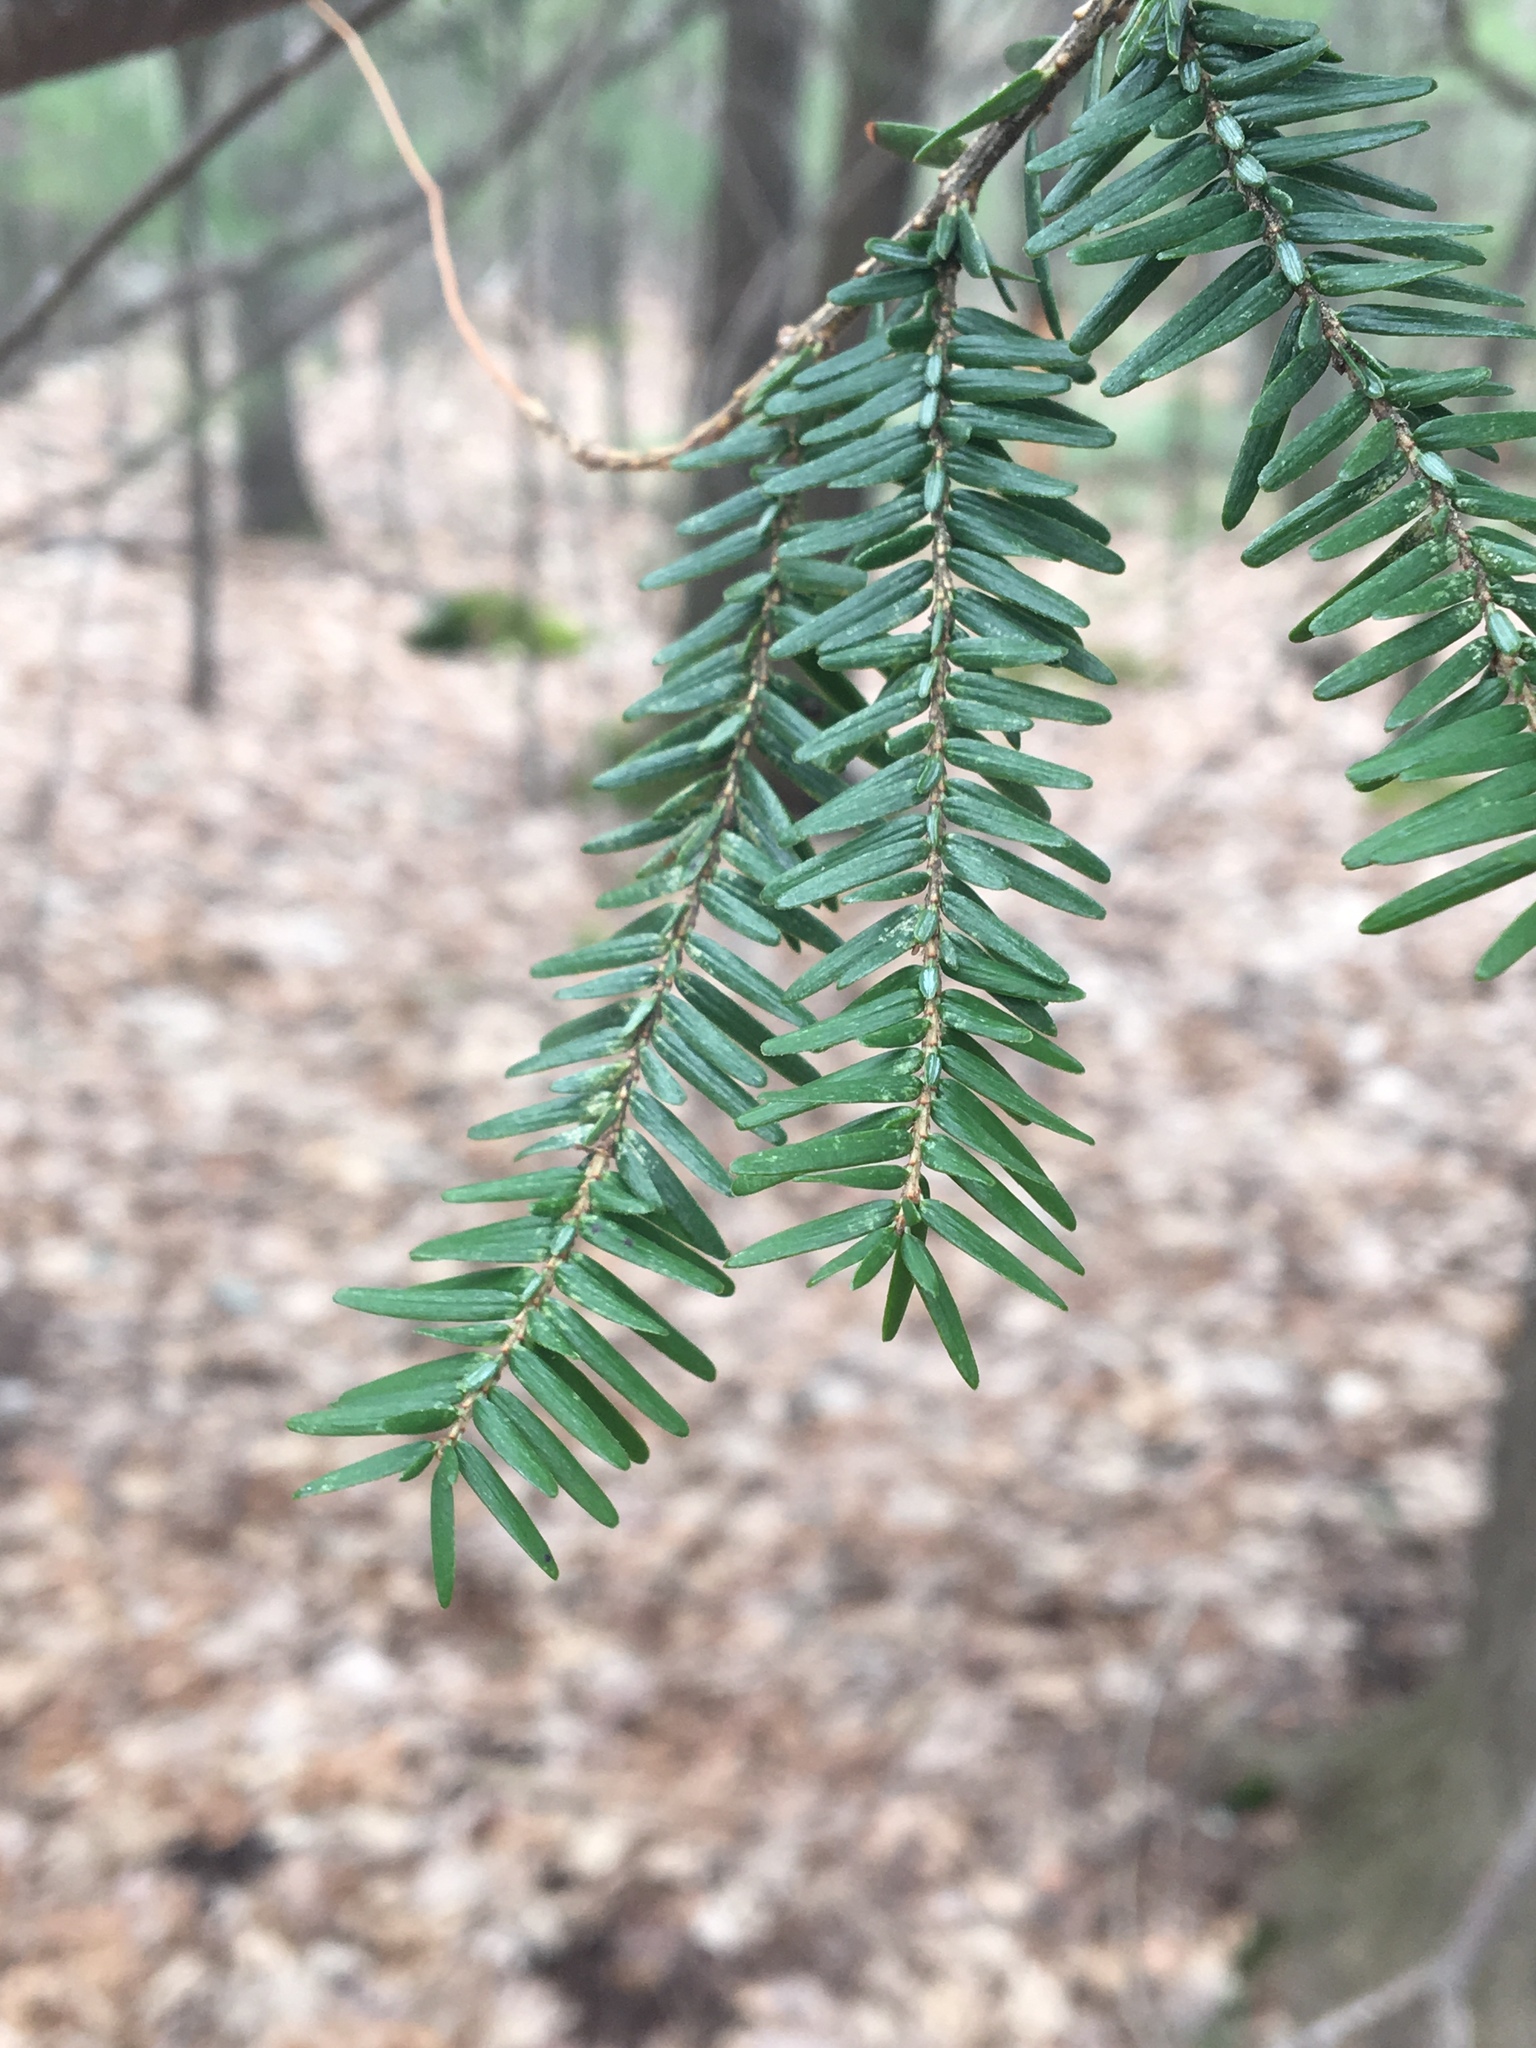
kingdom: Plantae
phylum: Tracheophyta
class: Pinopsida
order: Pinales
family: Pinaceae
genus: Tsuga
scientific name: Tsuga canadensis
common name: Eastern hemlock
